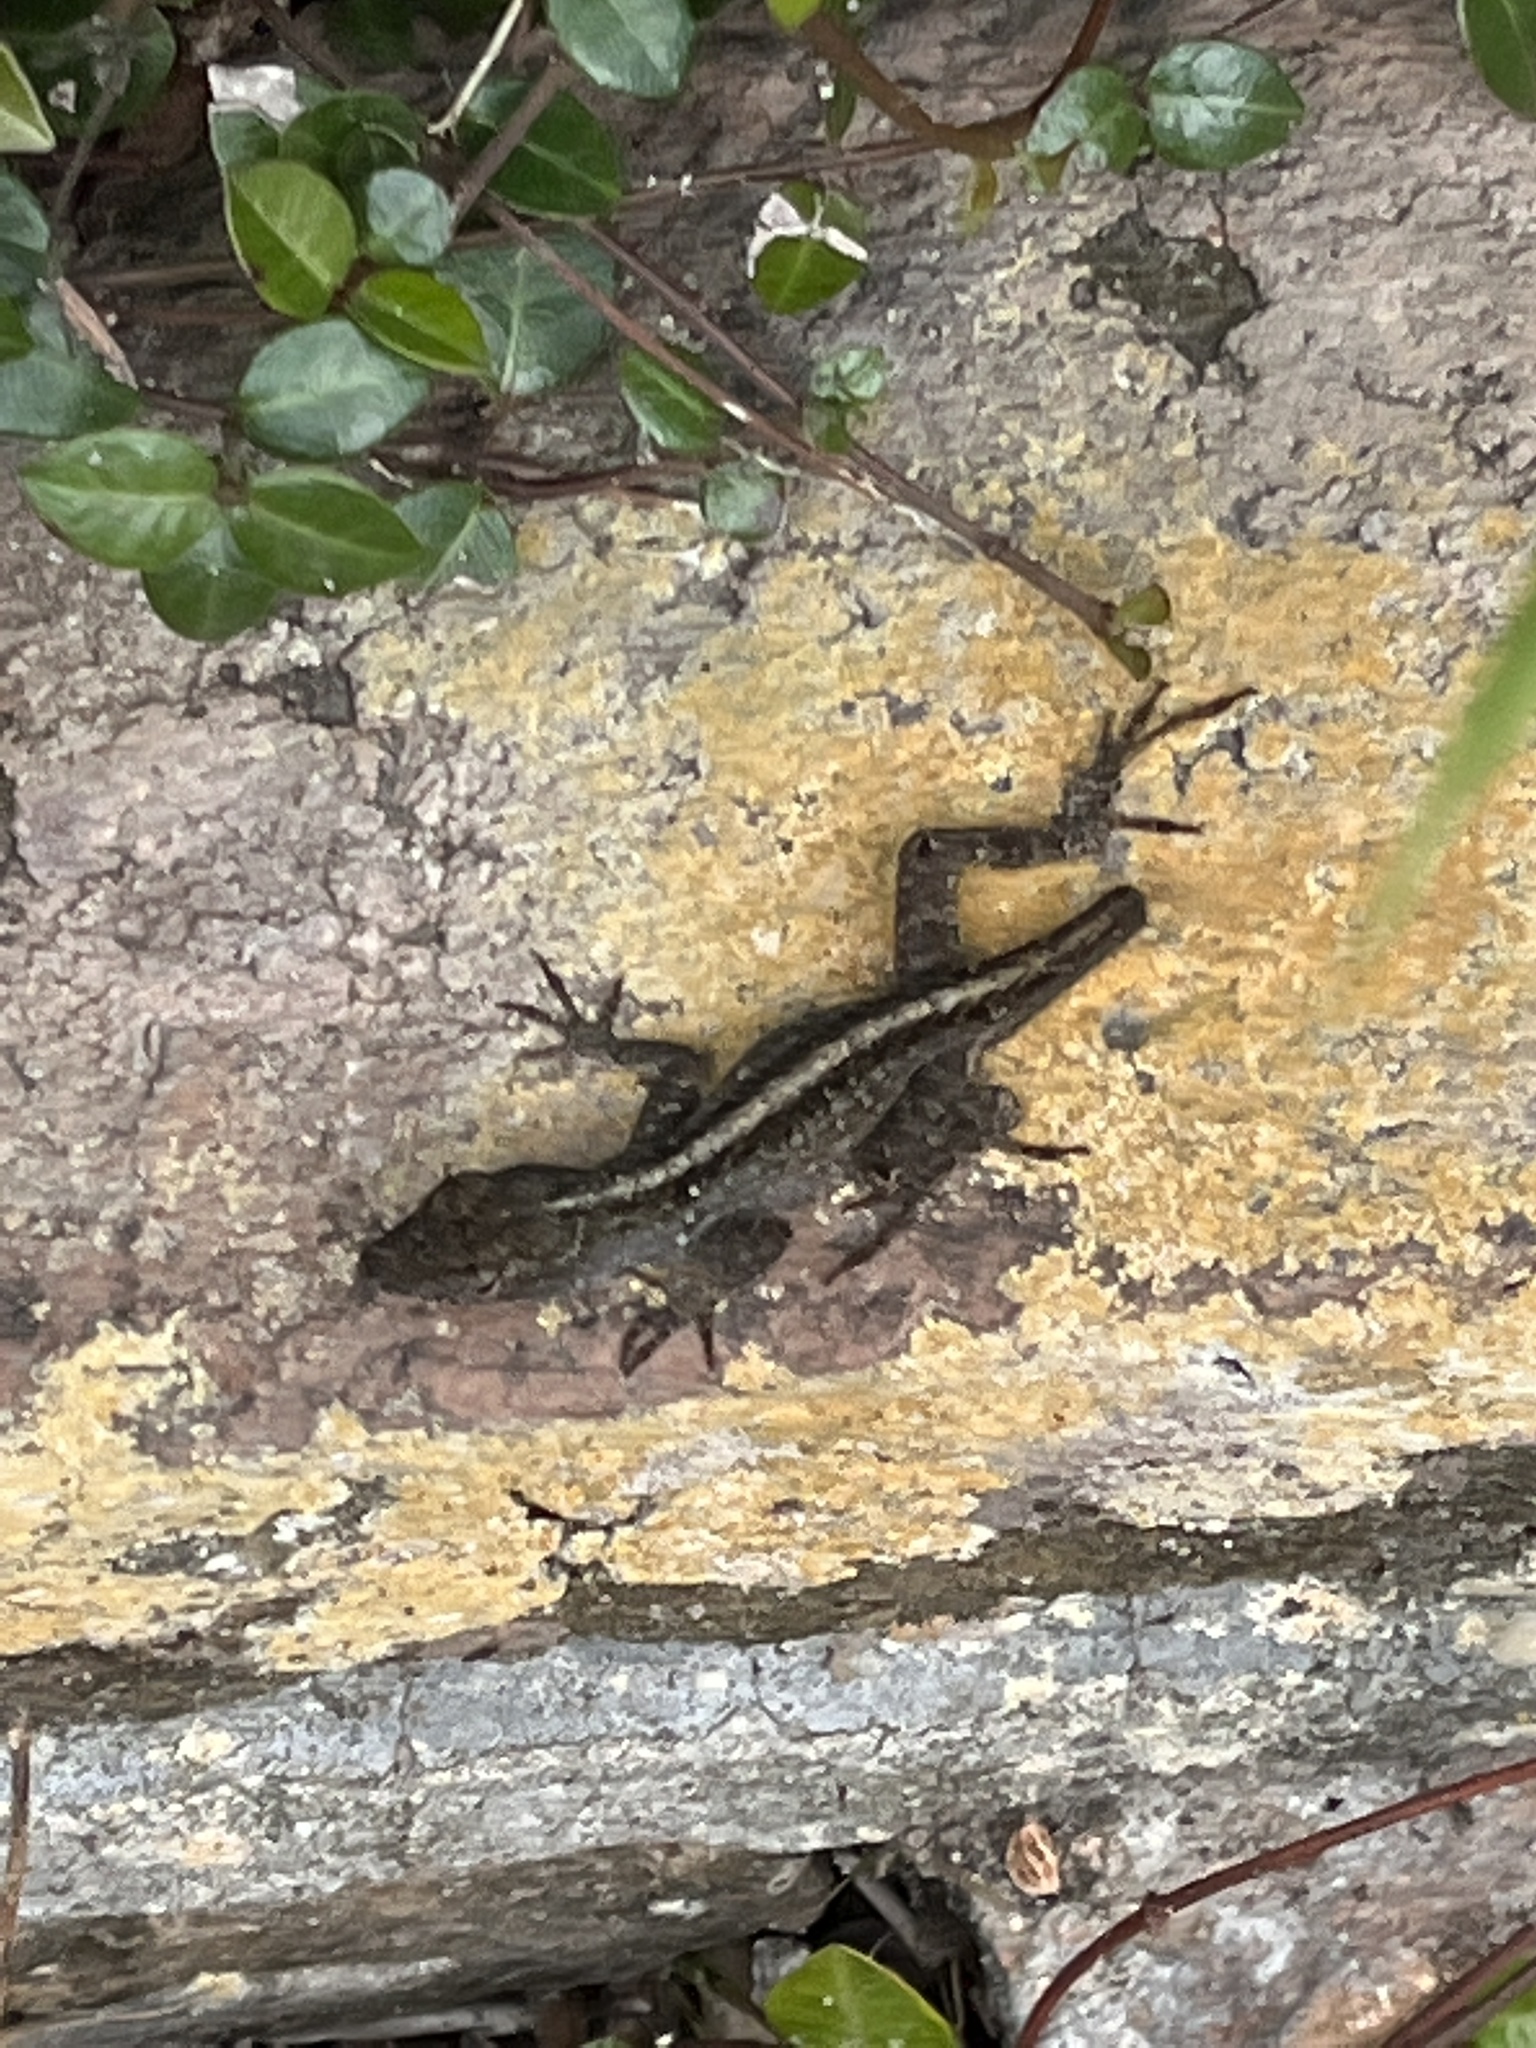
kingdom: Animalia
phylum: Chordata
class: Squamata
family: Dactyloidae
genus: Anolis
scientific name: Anolis sagrei
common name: Brown anole
